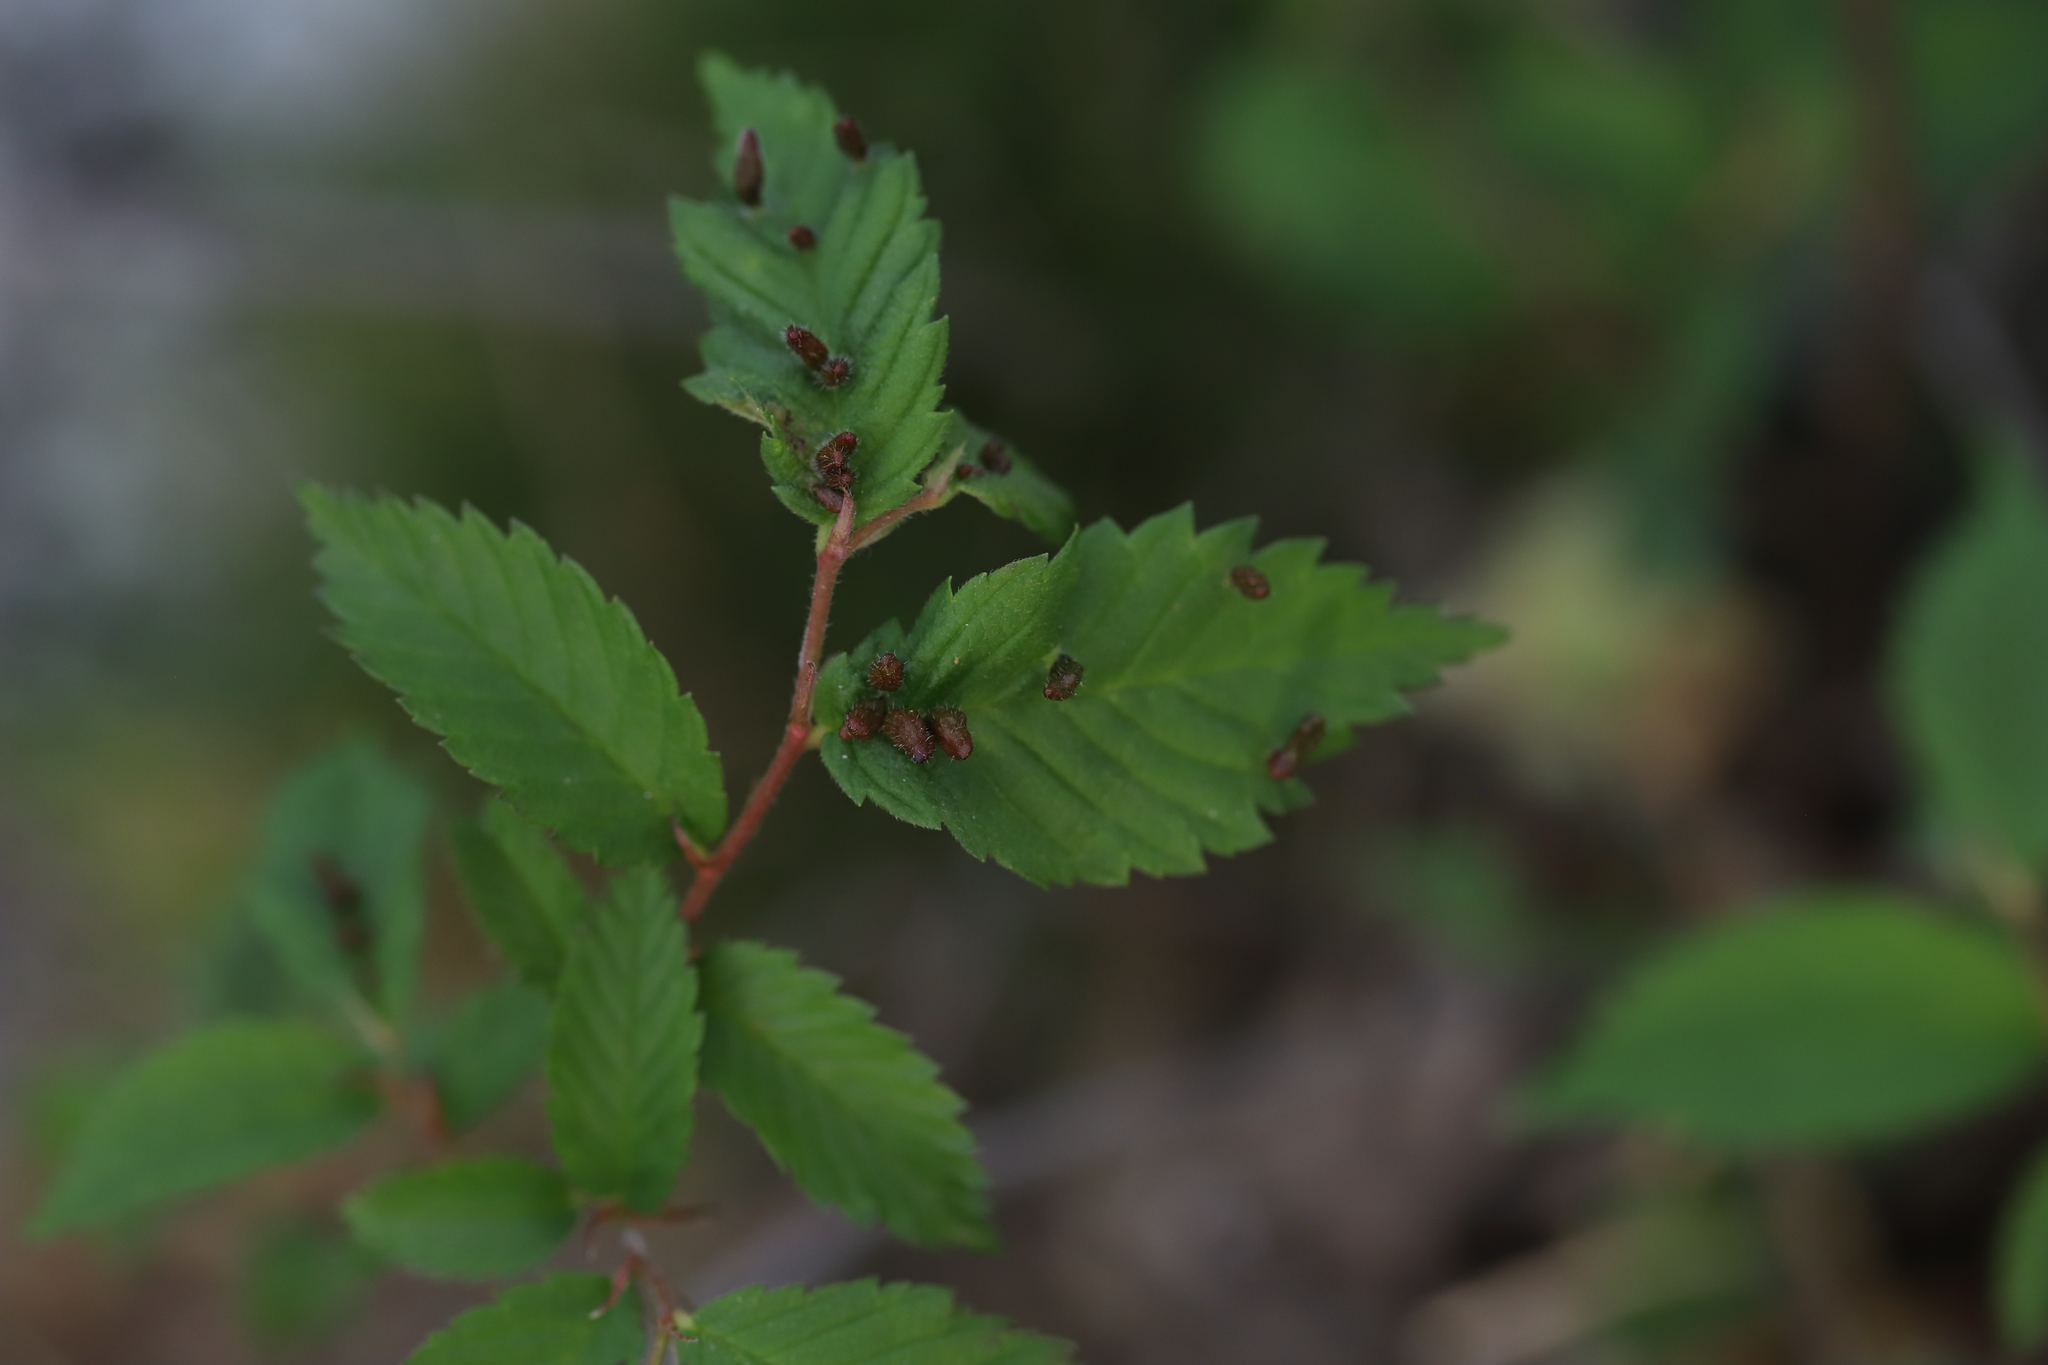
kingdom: Animalia
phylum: Arthropoda
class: Arachnida
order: Trombidiformes
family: Eriophyidae
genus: Aceria
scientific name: Aceria
